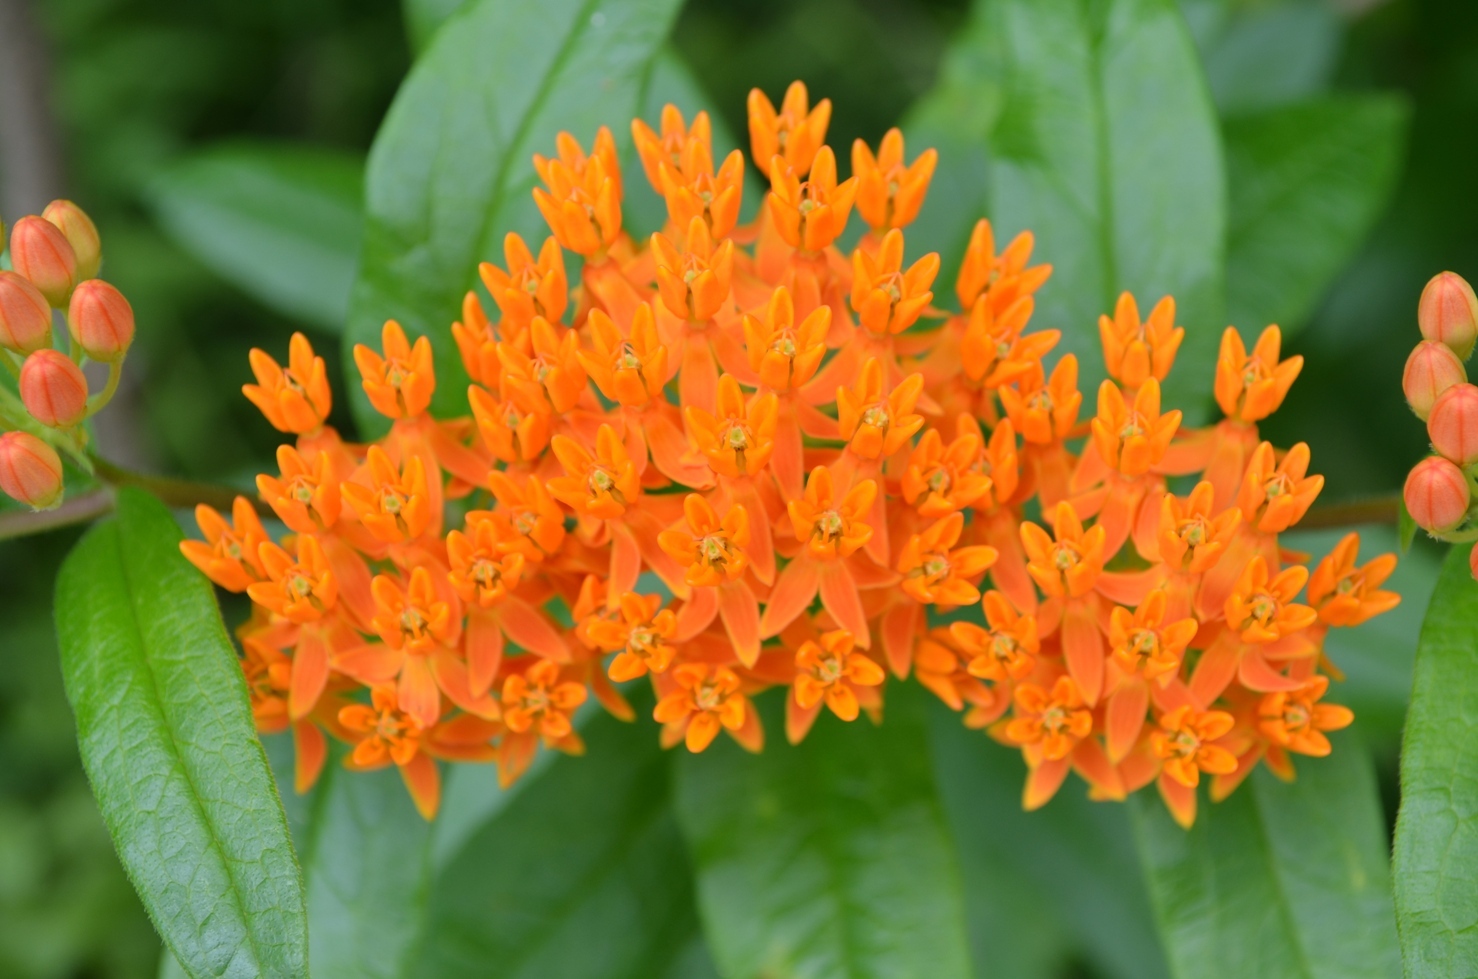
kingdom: Plantae
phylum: Tracheophyta
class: Magnoliopsida
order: Gentianales
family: Apocynaceae
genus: Asclepias
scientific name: Asclepias tuberosa
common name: Butterfly milkweed
